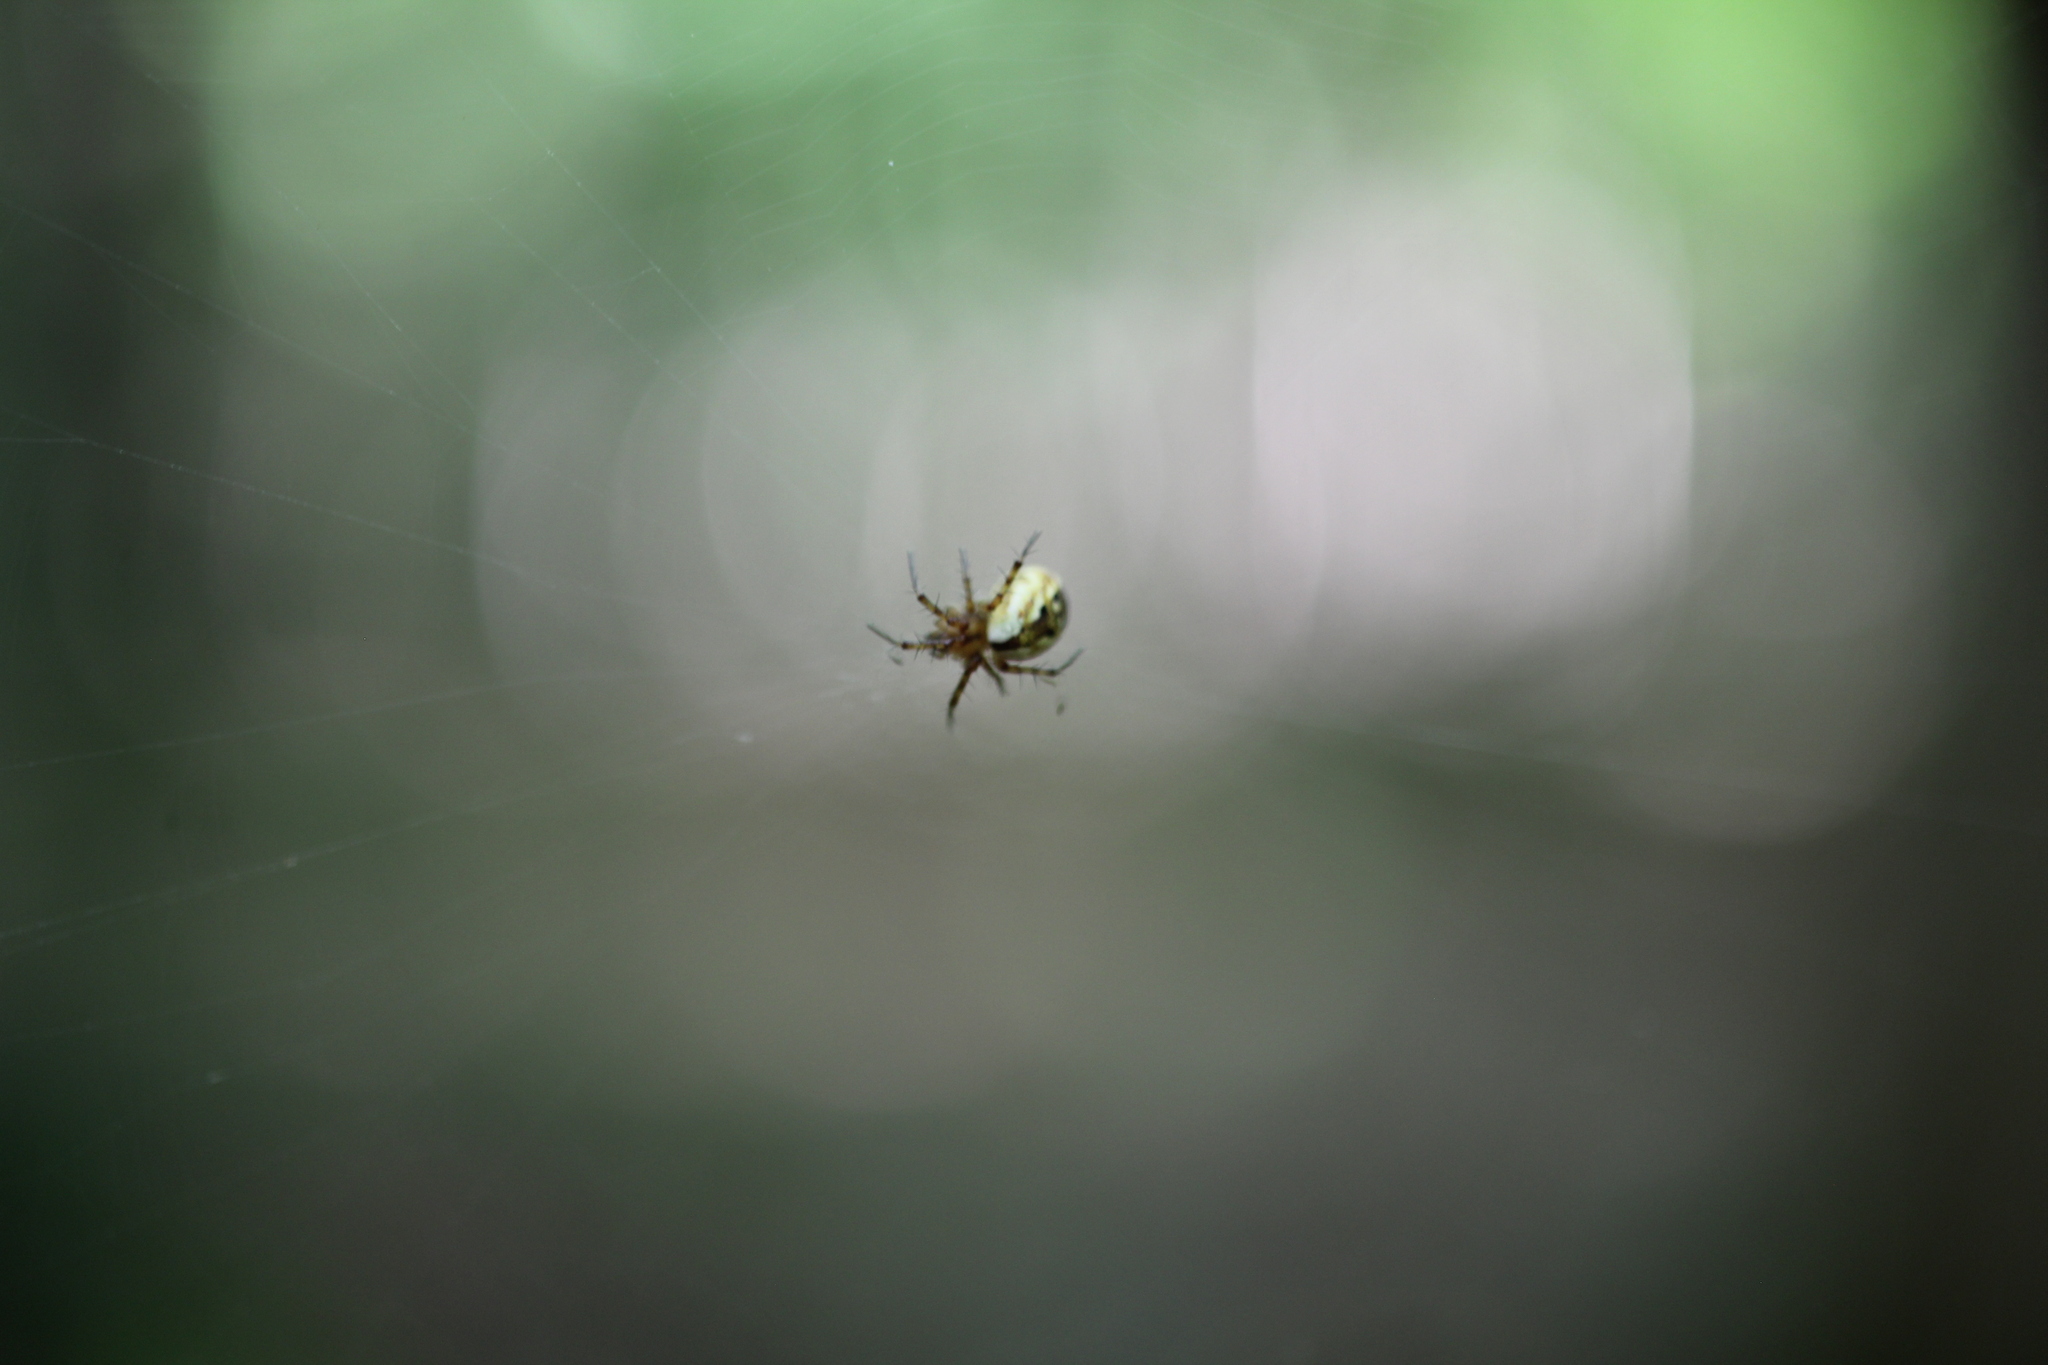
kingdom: Animalia
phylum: Arthropoda
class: Arachnida
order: Araneae
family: Araneidae
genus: Mangora
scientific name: Mangora placida
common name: Tuft-legged orbweaver
